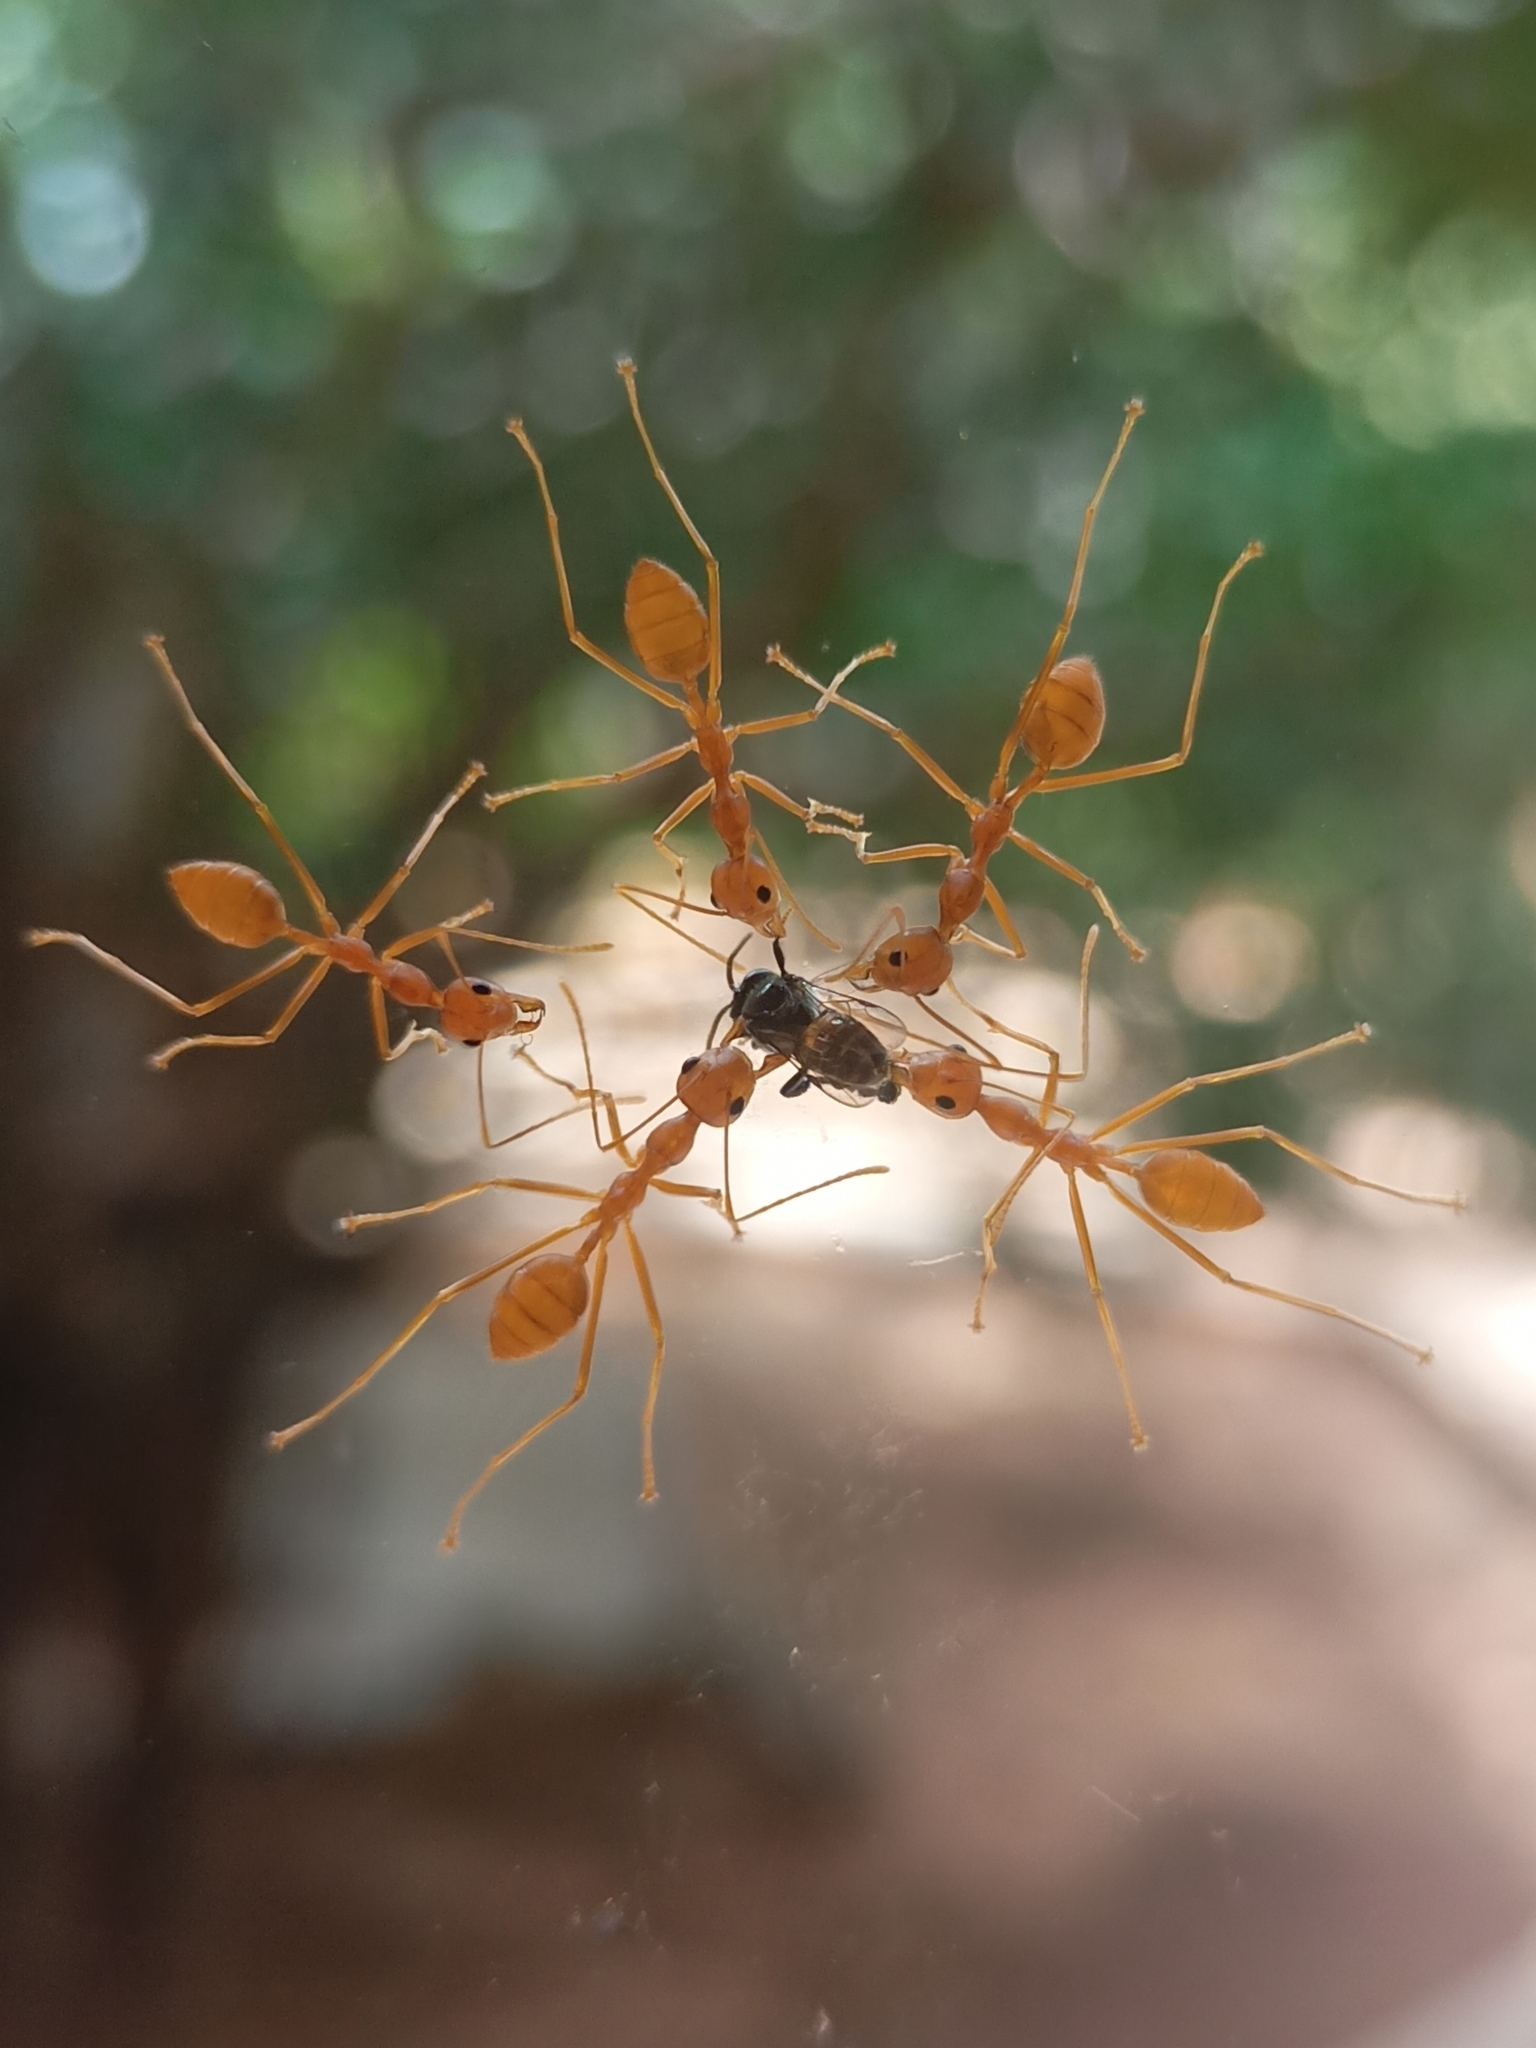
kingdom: Animalia
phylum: Arthropoda
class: Insecta
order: Hymenoptera
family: Formicidae
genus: Oecophylla
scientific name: Oecophylla smaragdina
